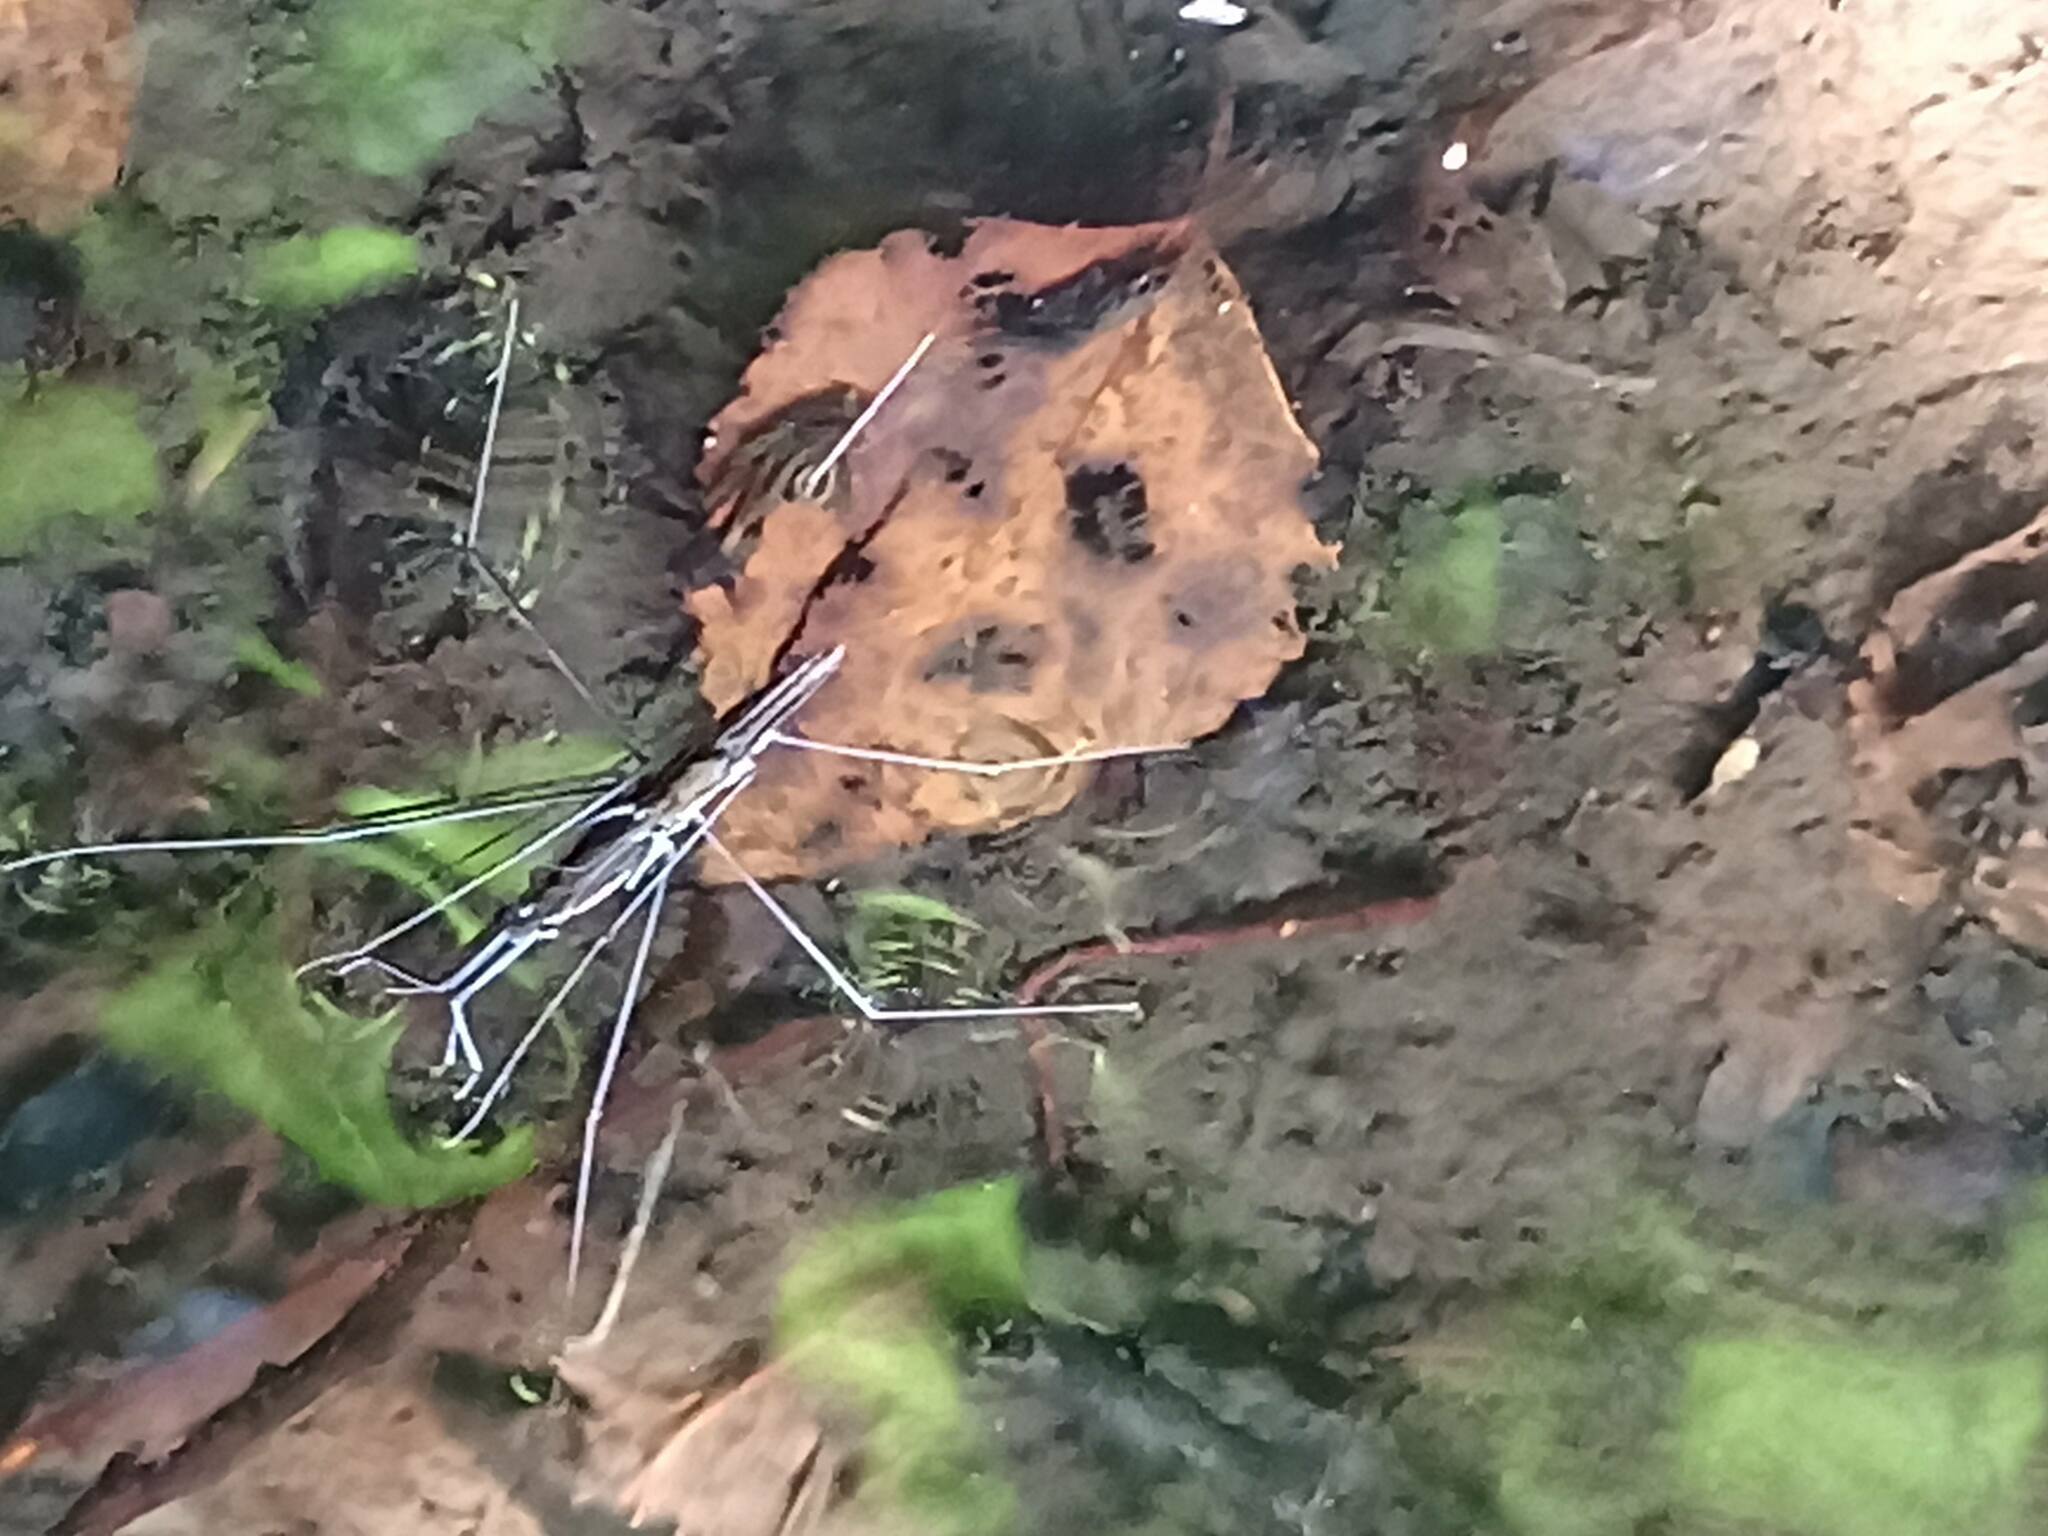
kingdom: Animalia
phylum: Arthropoda
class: Insecta
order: Hemiptera
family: Gerridae
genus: Aquarius
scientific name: Aquarius
